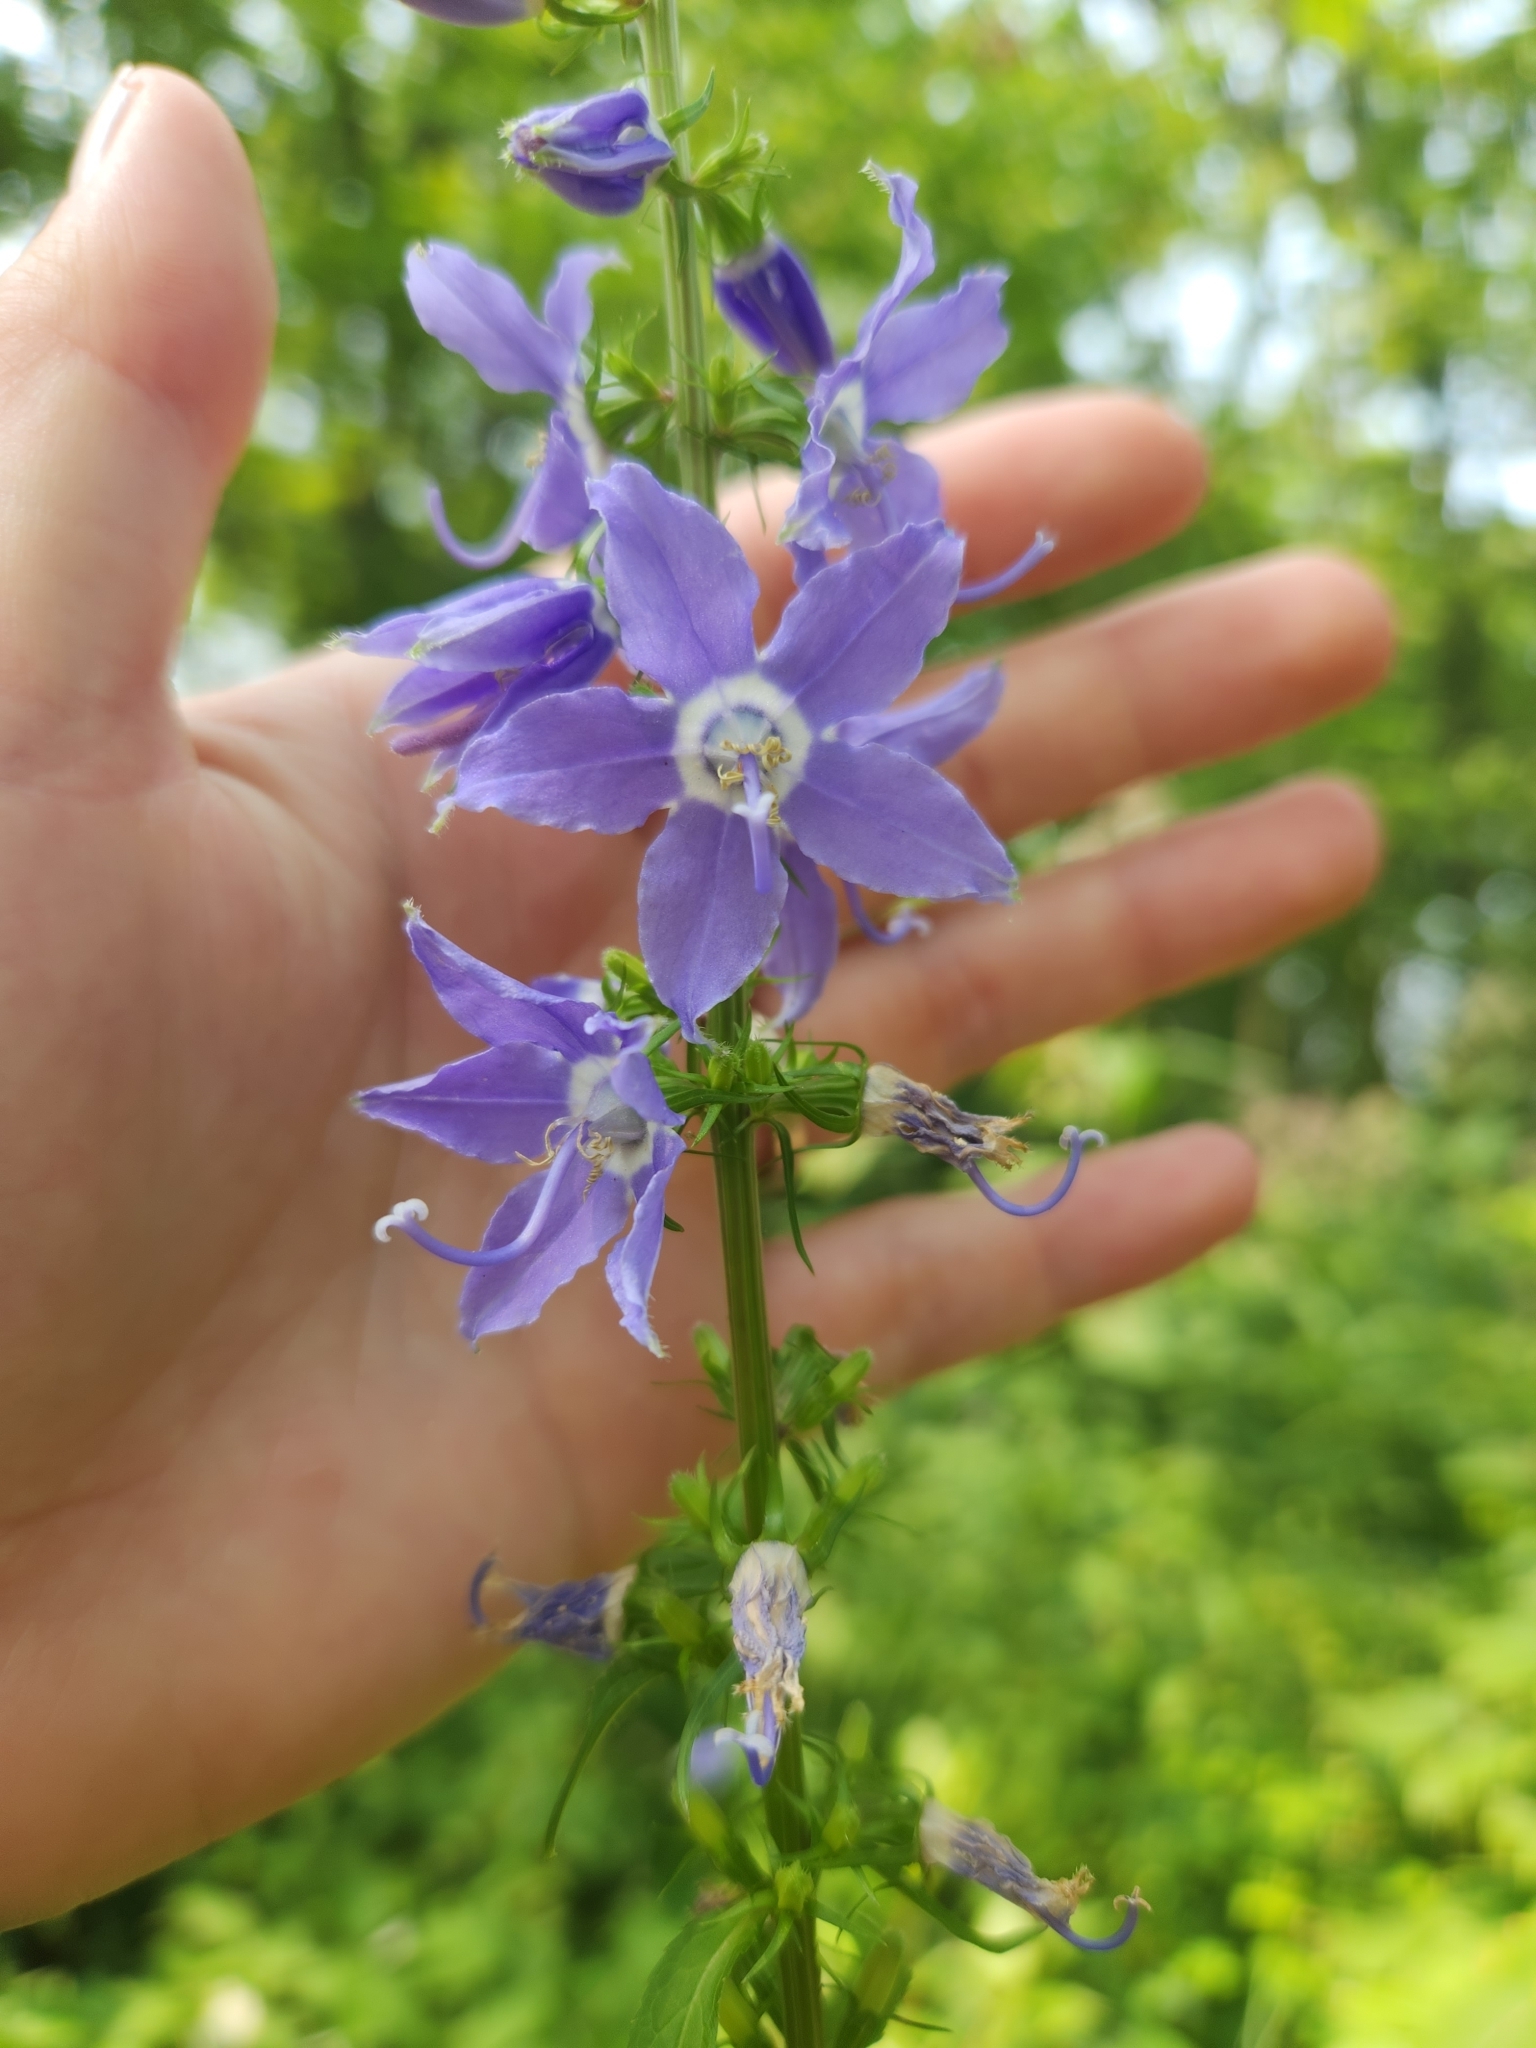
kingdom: Plantae
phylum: Tracheophyta
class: Magnoliopsida
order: Asterales
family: Campanulaceae
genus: Campanulastrum
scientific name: Campanulastrum americanum
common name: American bellflower
